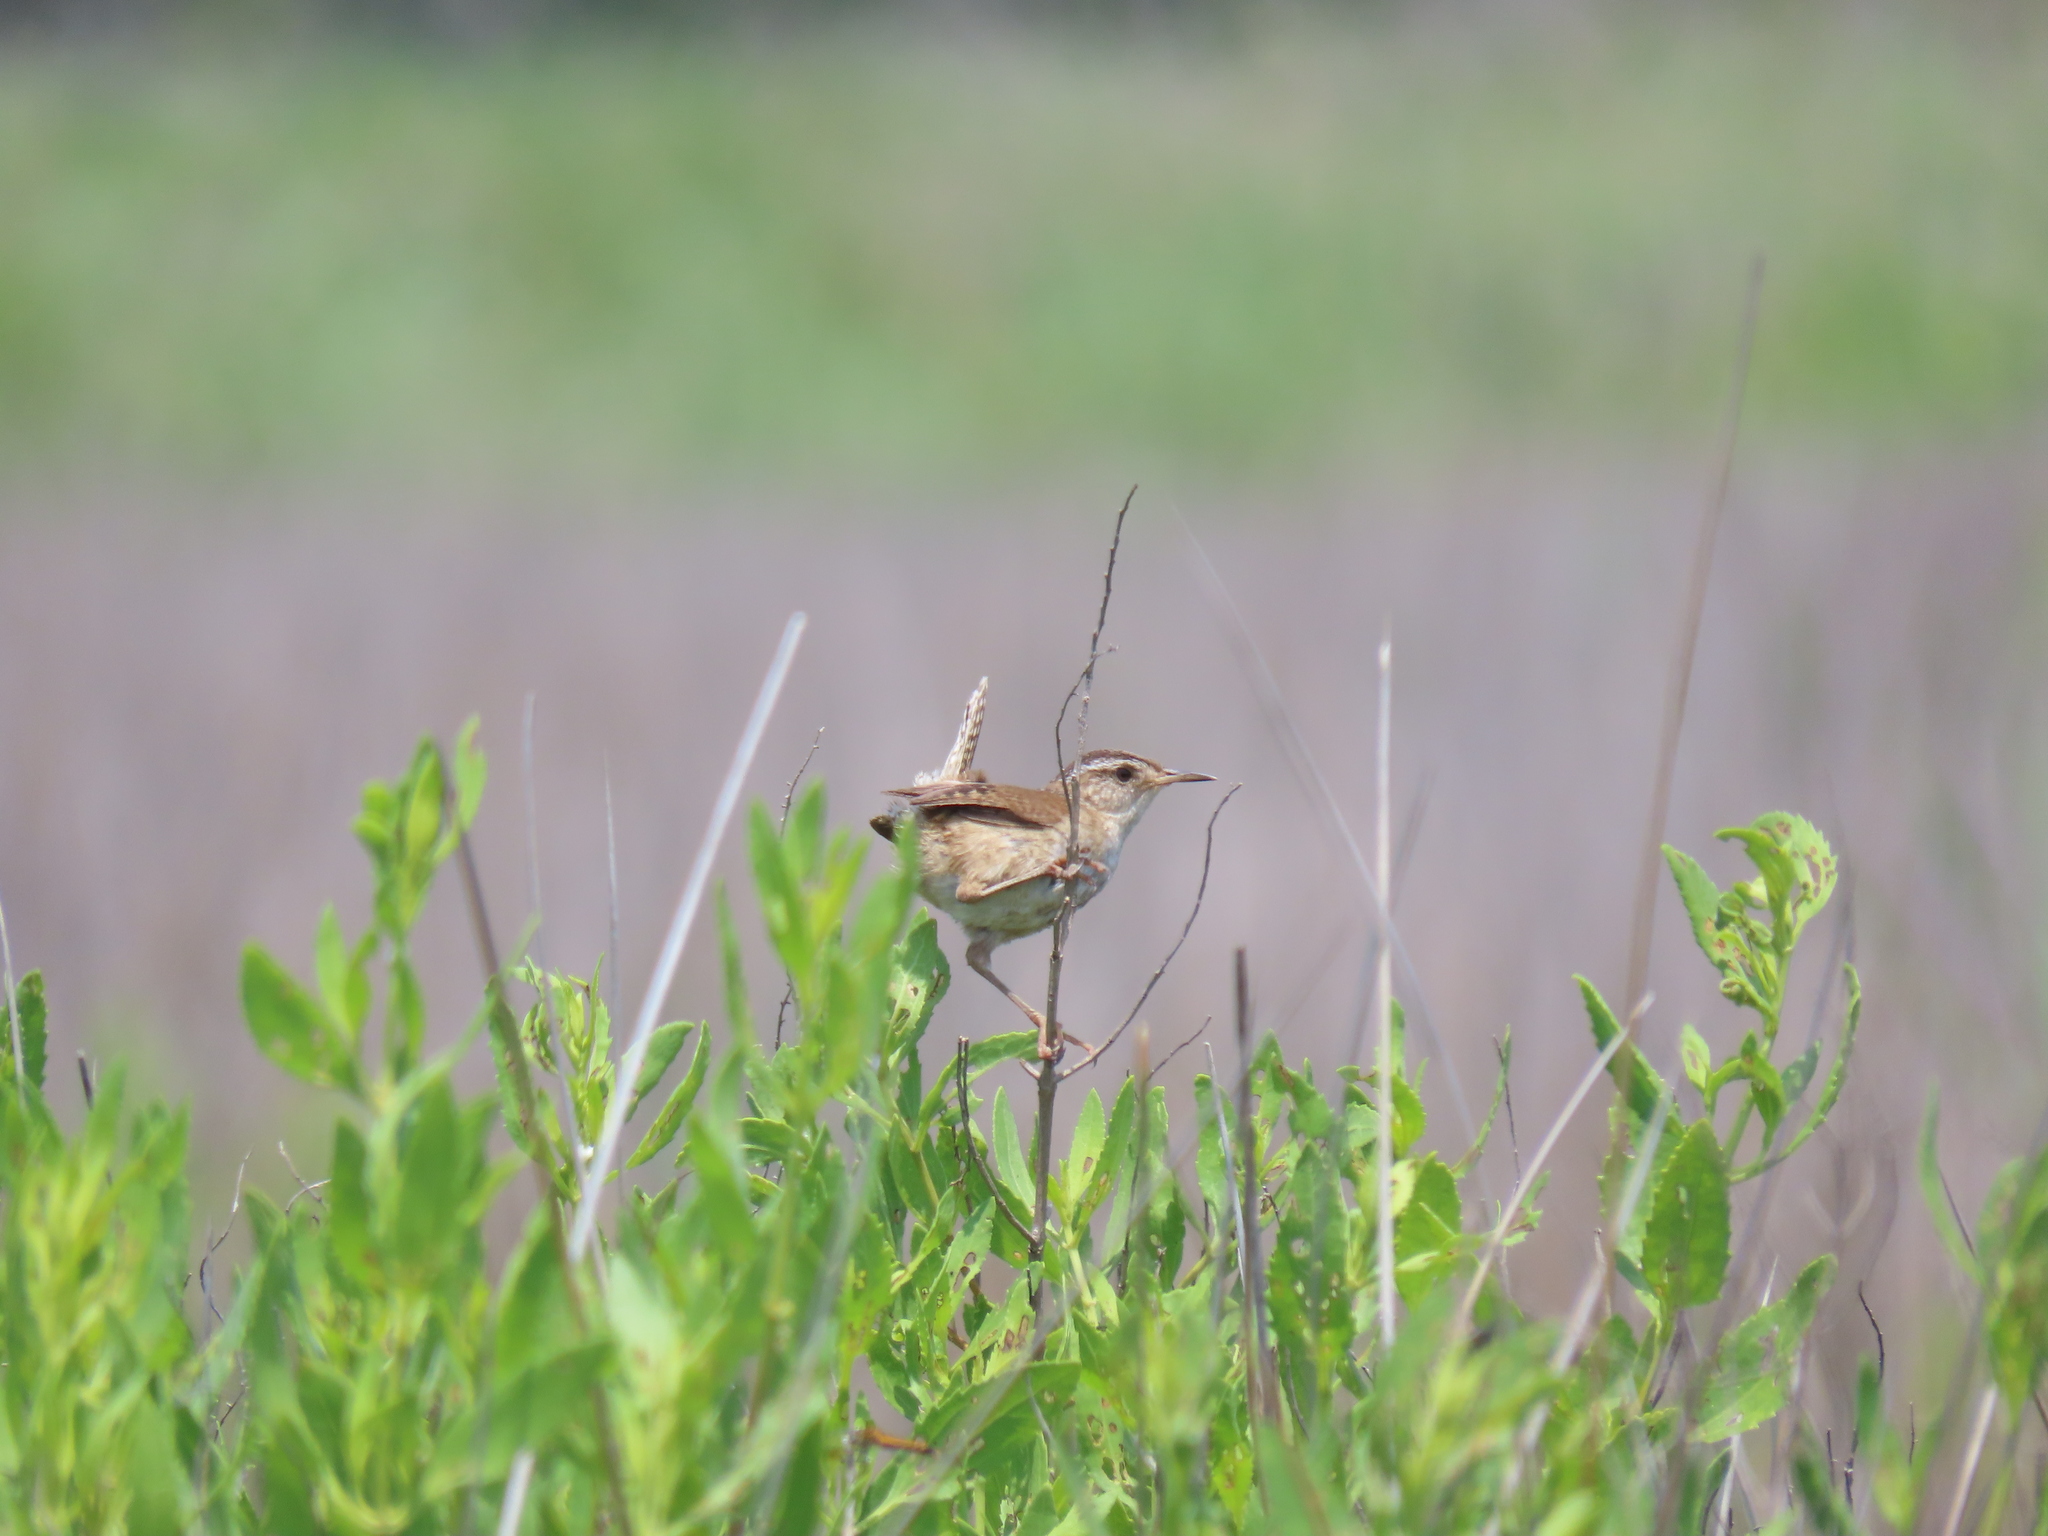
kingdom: Animalia
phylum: Chordata
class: Aves
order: Passeriformes
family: Troglodytidae
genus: Cistothorus
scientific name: Cistothorus platensis
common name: Sedge wren
